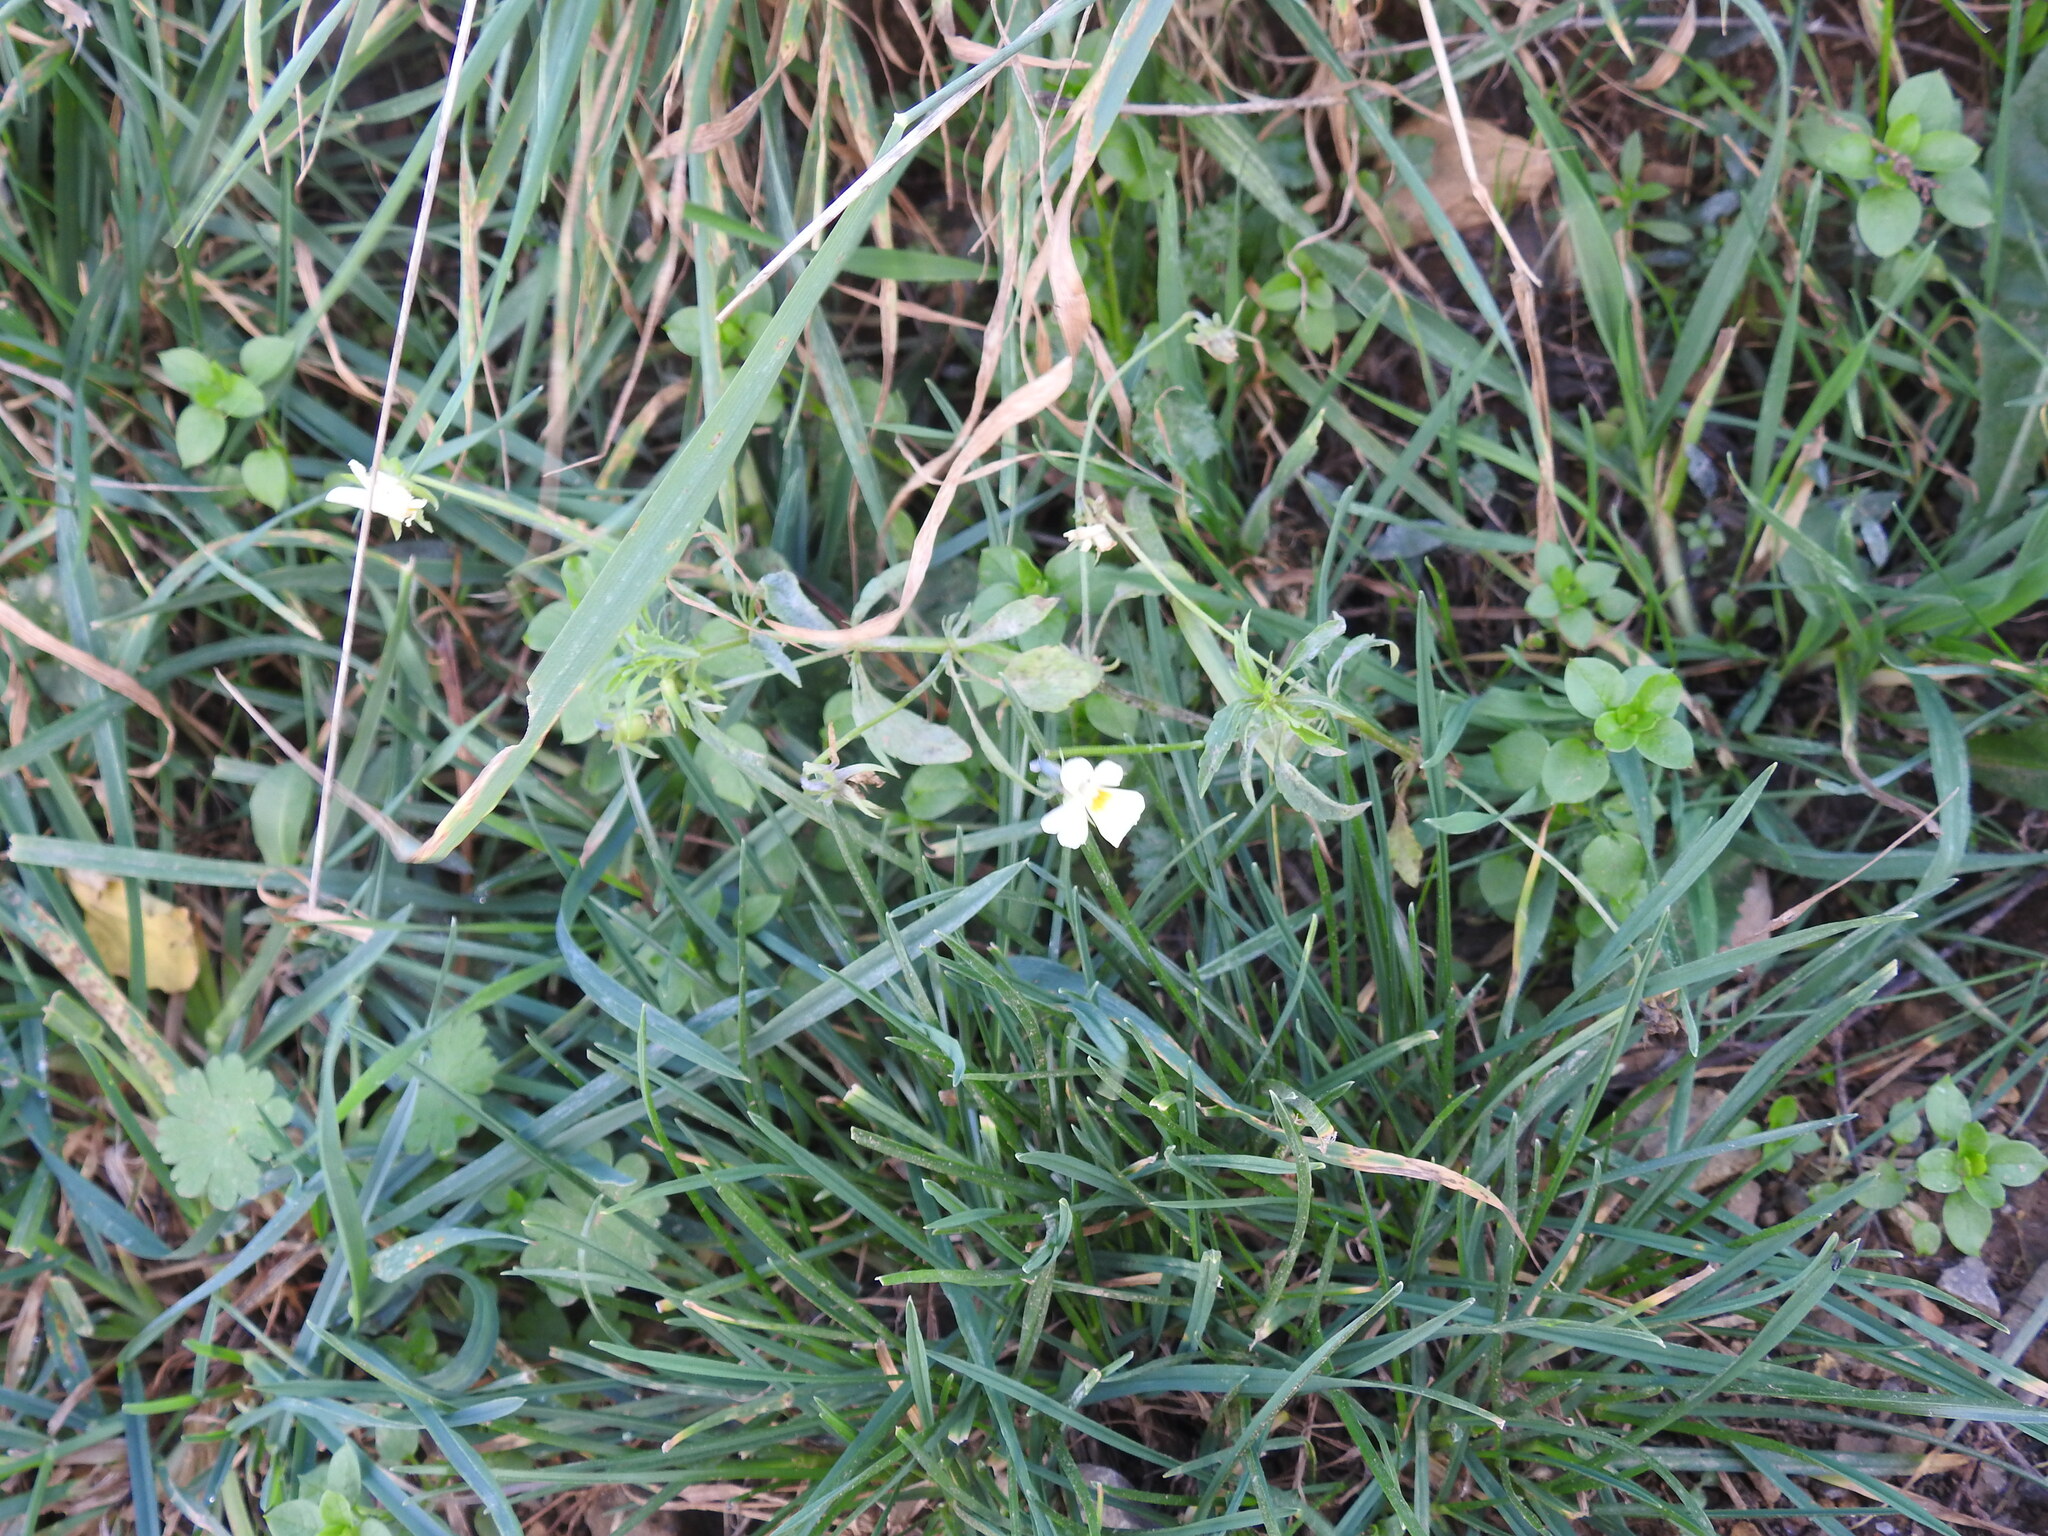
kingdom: Plantae
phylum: Tracheophyta
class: Magnoliopsida
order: Malpighiales
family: Violaceae
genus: Viola
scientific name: Viola arvensis
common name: Field pansy
